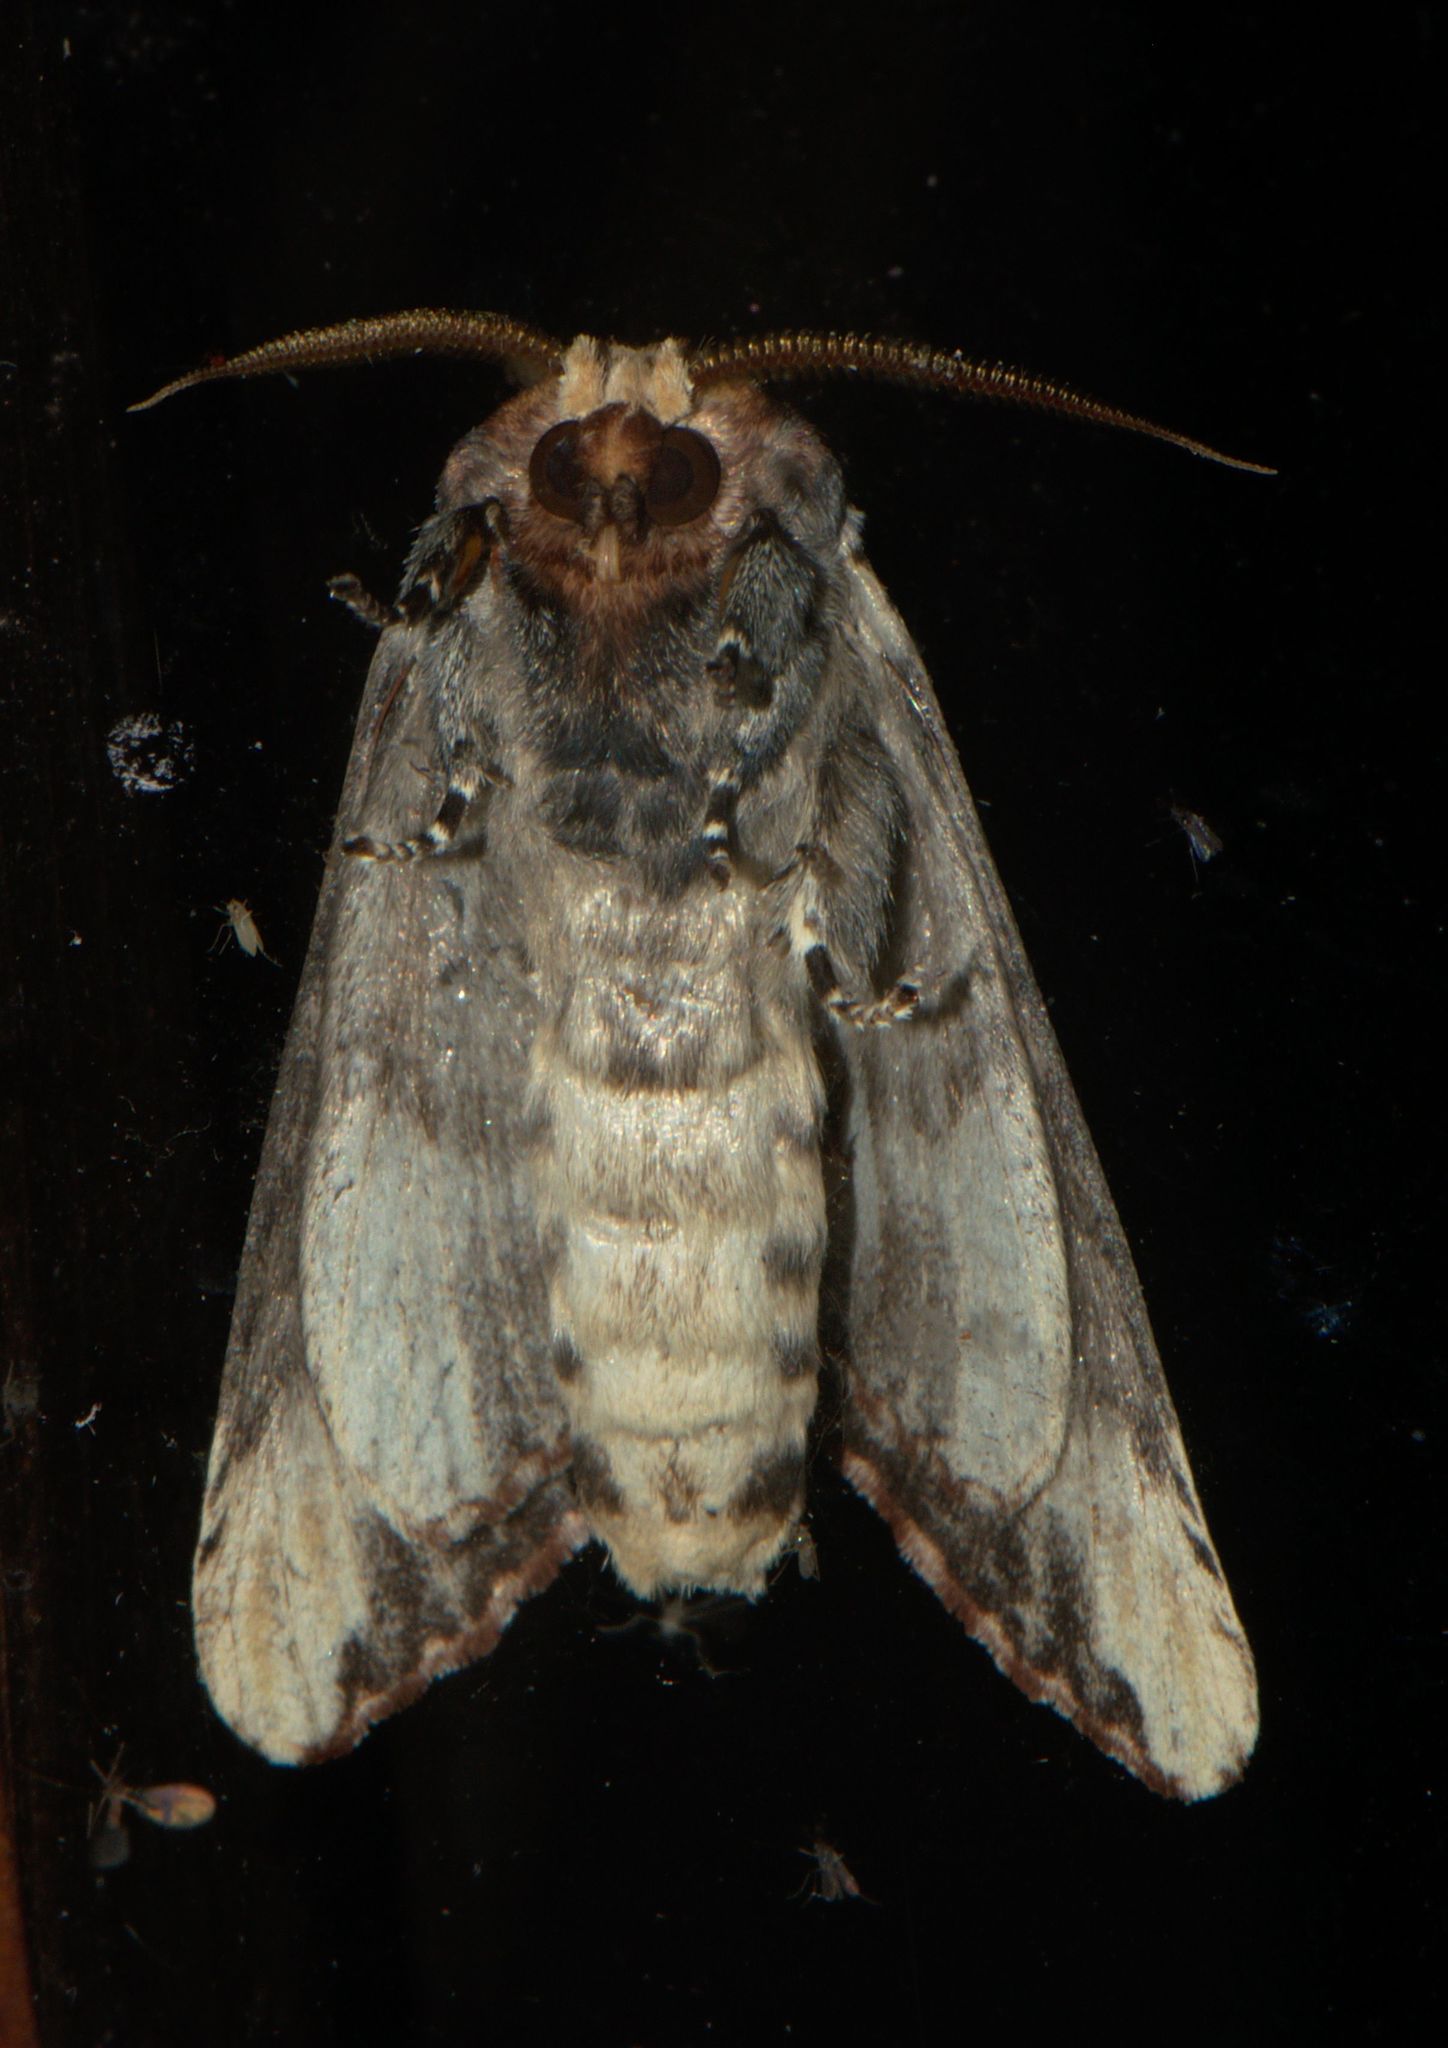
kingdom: Animalia
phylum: Arthropoda
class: Insecta
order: Lepidoptera
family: Notodontidae
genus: Phalera
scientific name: Phalera goniophora
